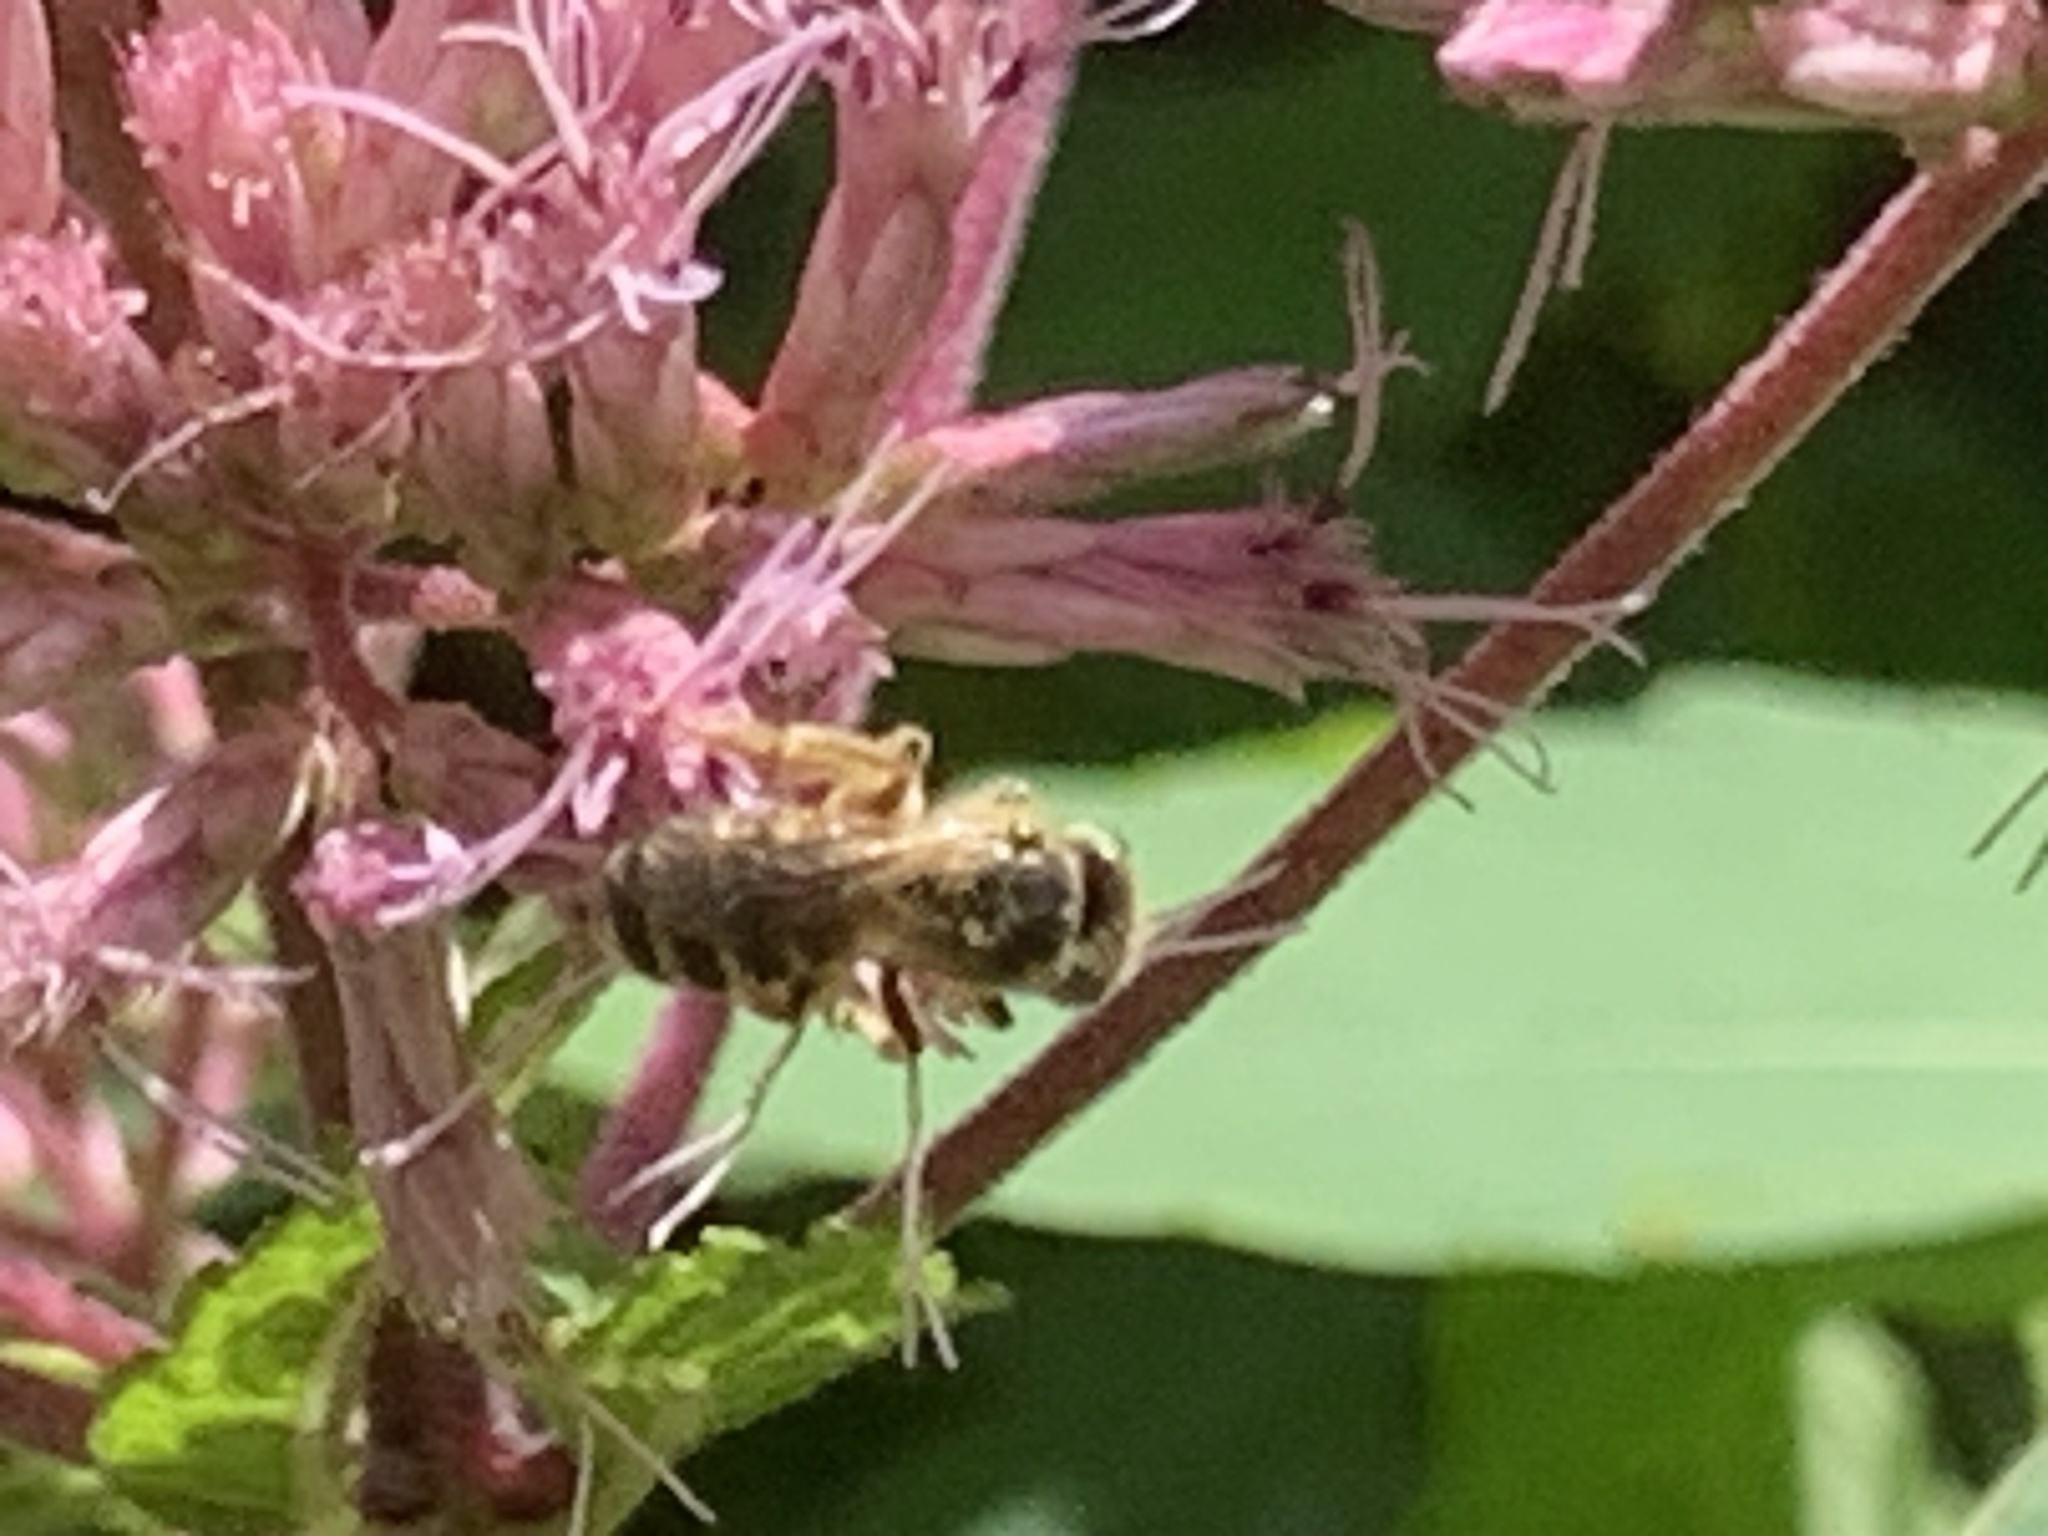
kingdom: Animalia
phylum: Arthropoda
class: Insecta
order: Hymenoptera
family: Halictidae
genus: Halictus
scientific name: Halictus ligatus
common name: Ligated furrow bee
